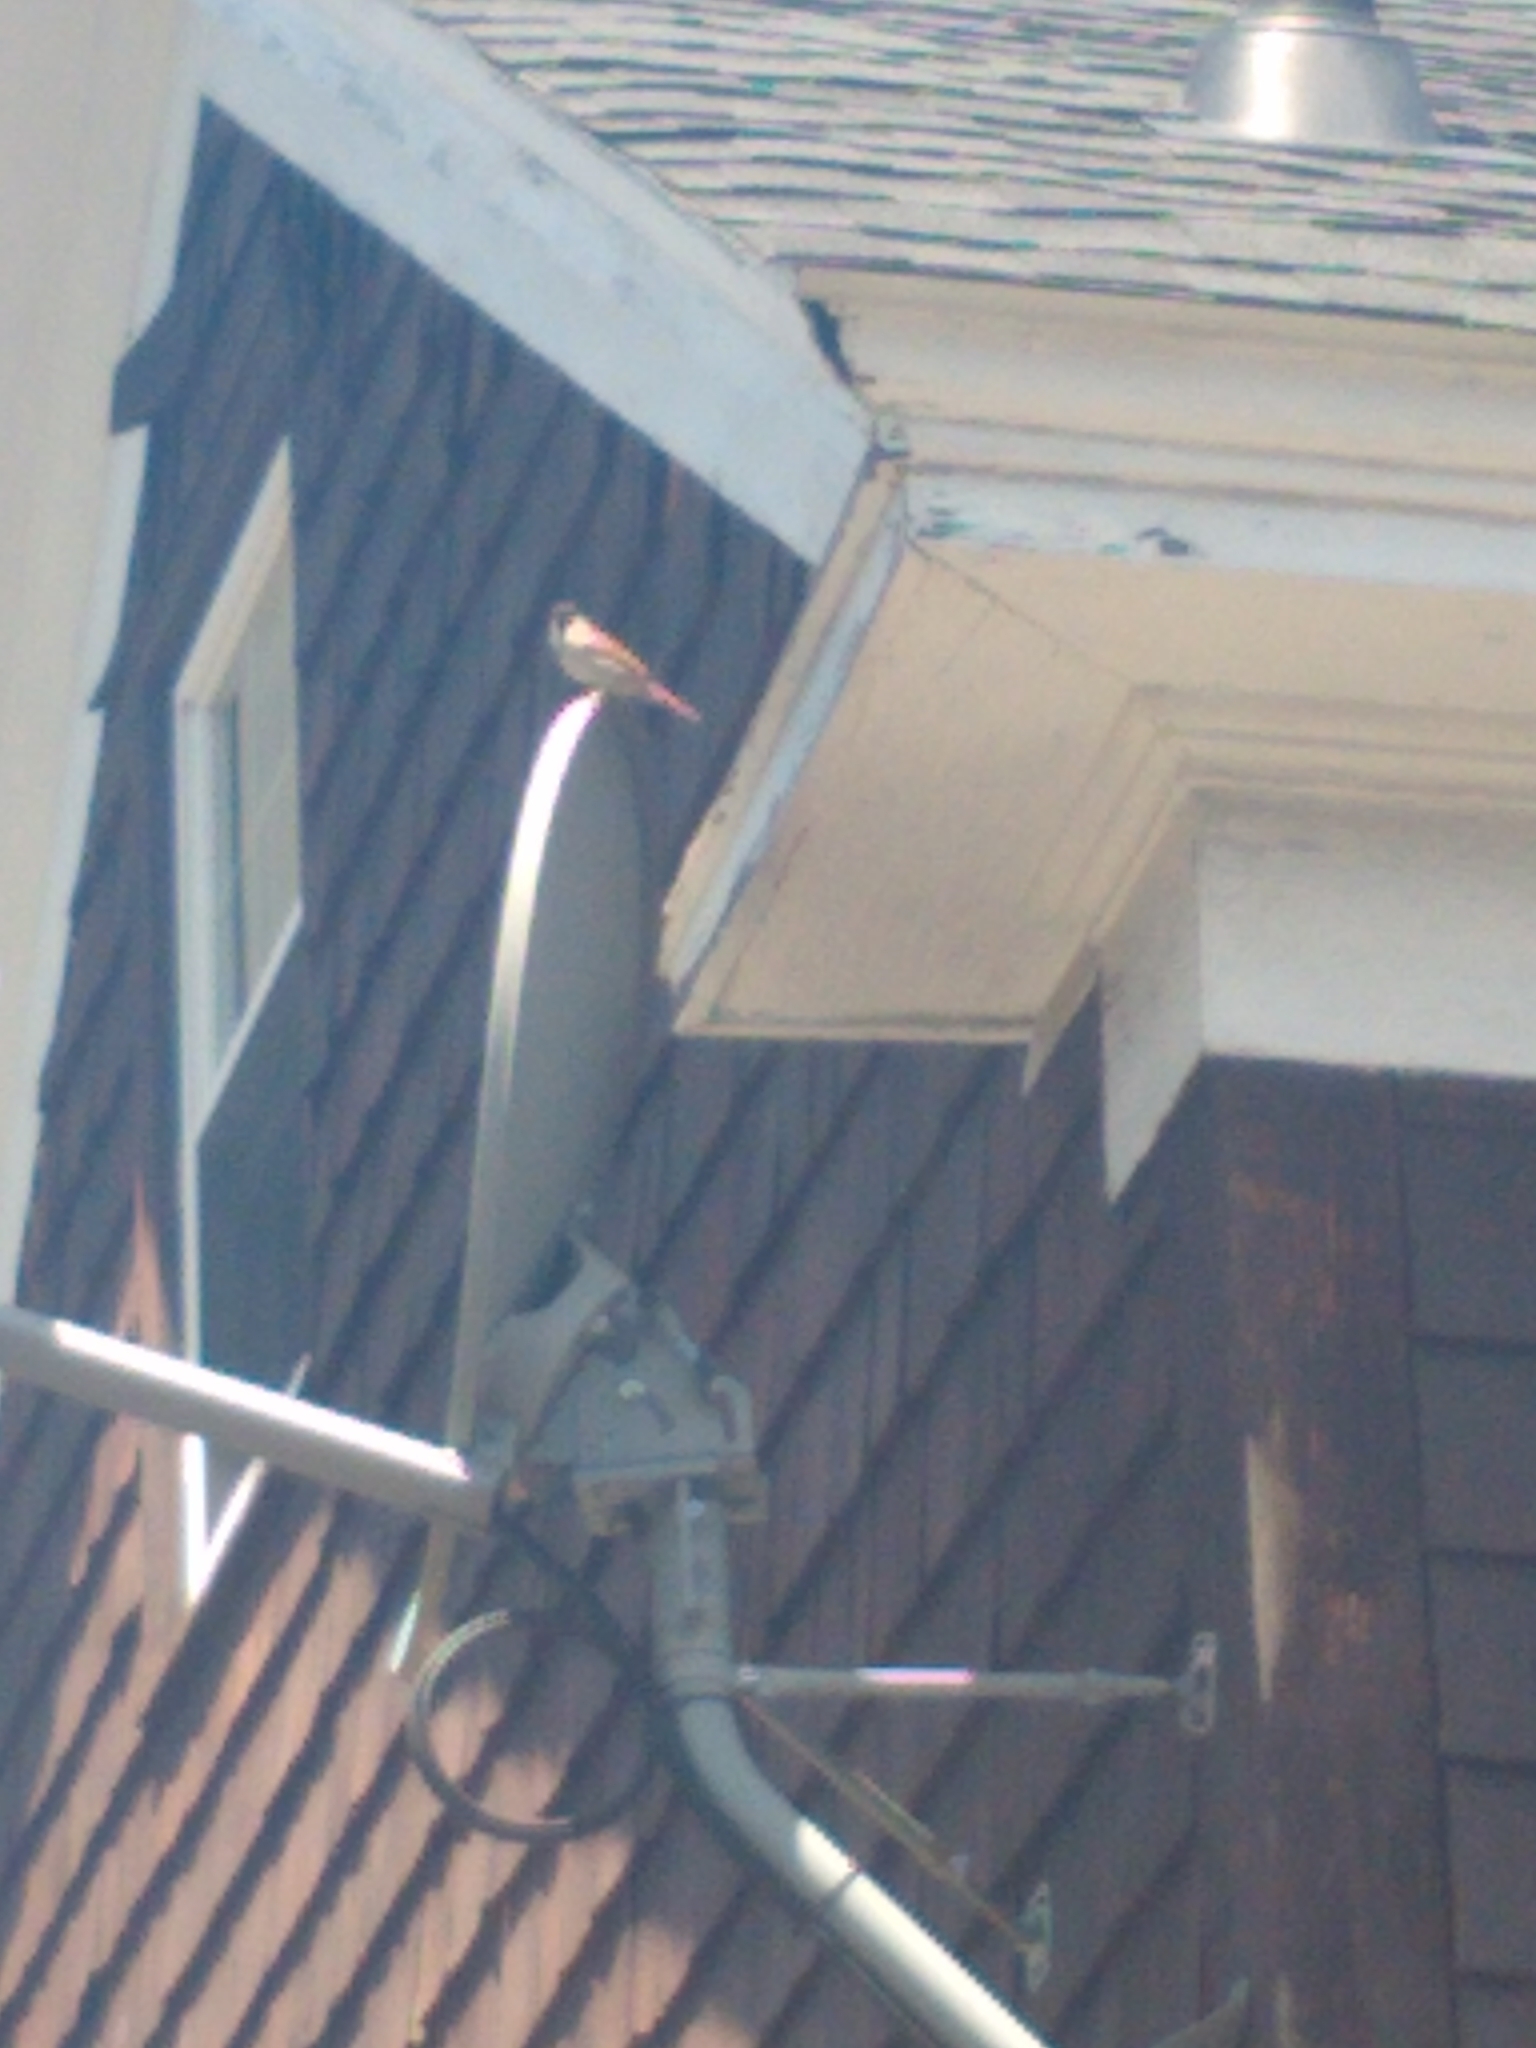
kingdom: Animalia
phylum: Chordata
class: Aves
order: Passeriformes
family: Passeridae
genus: Passer
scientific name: Passer domesticus
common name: House sparrow
